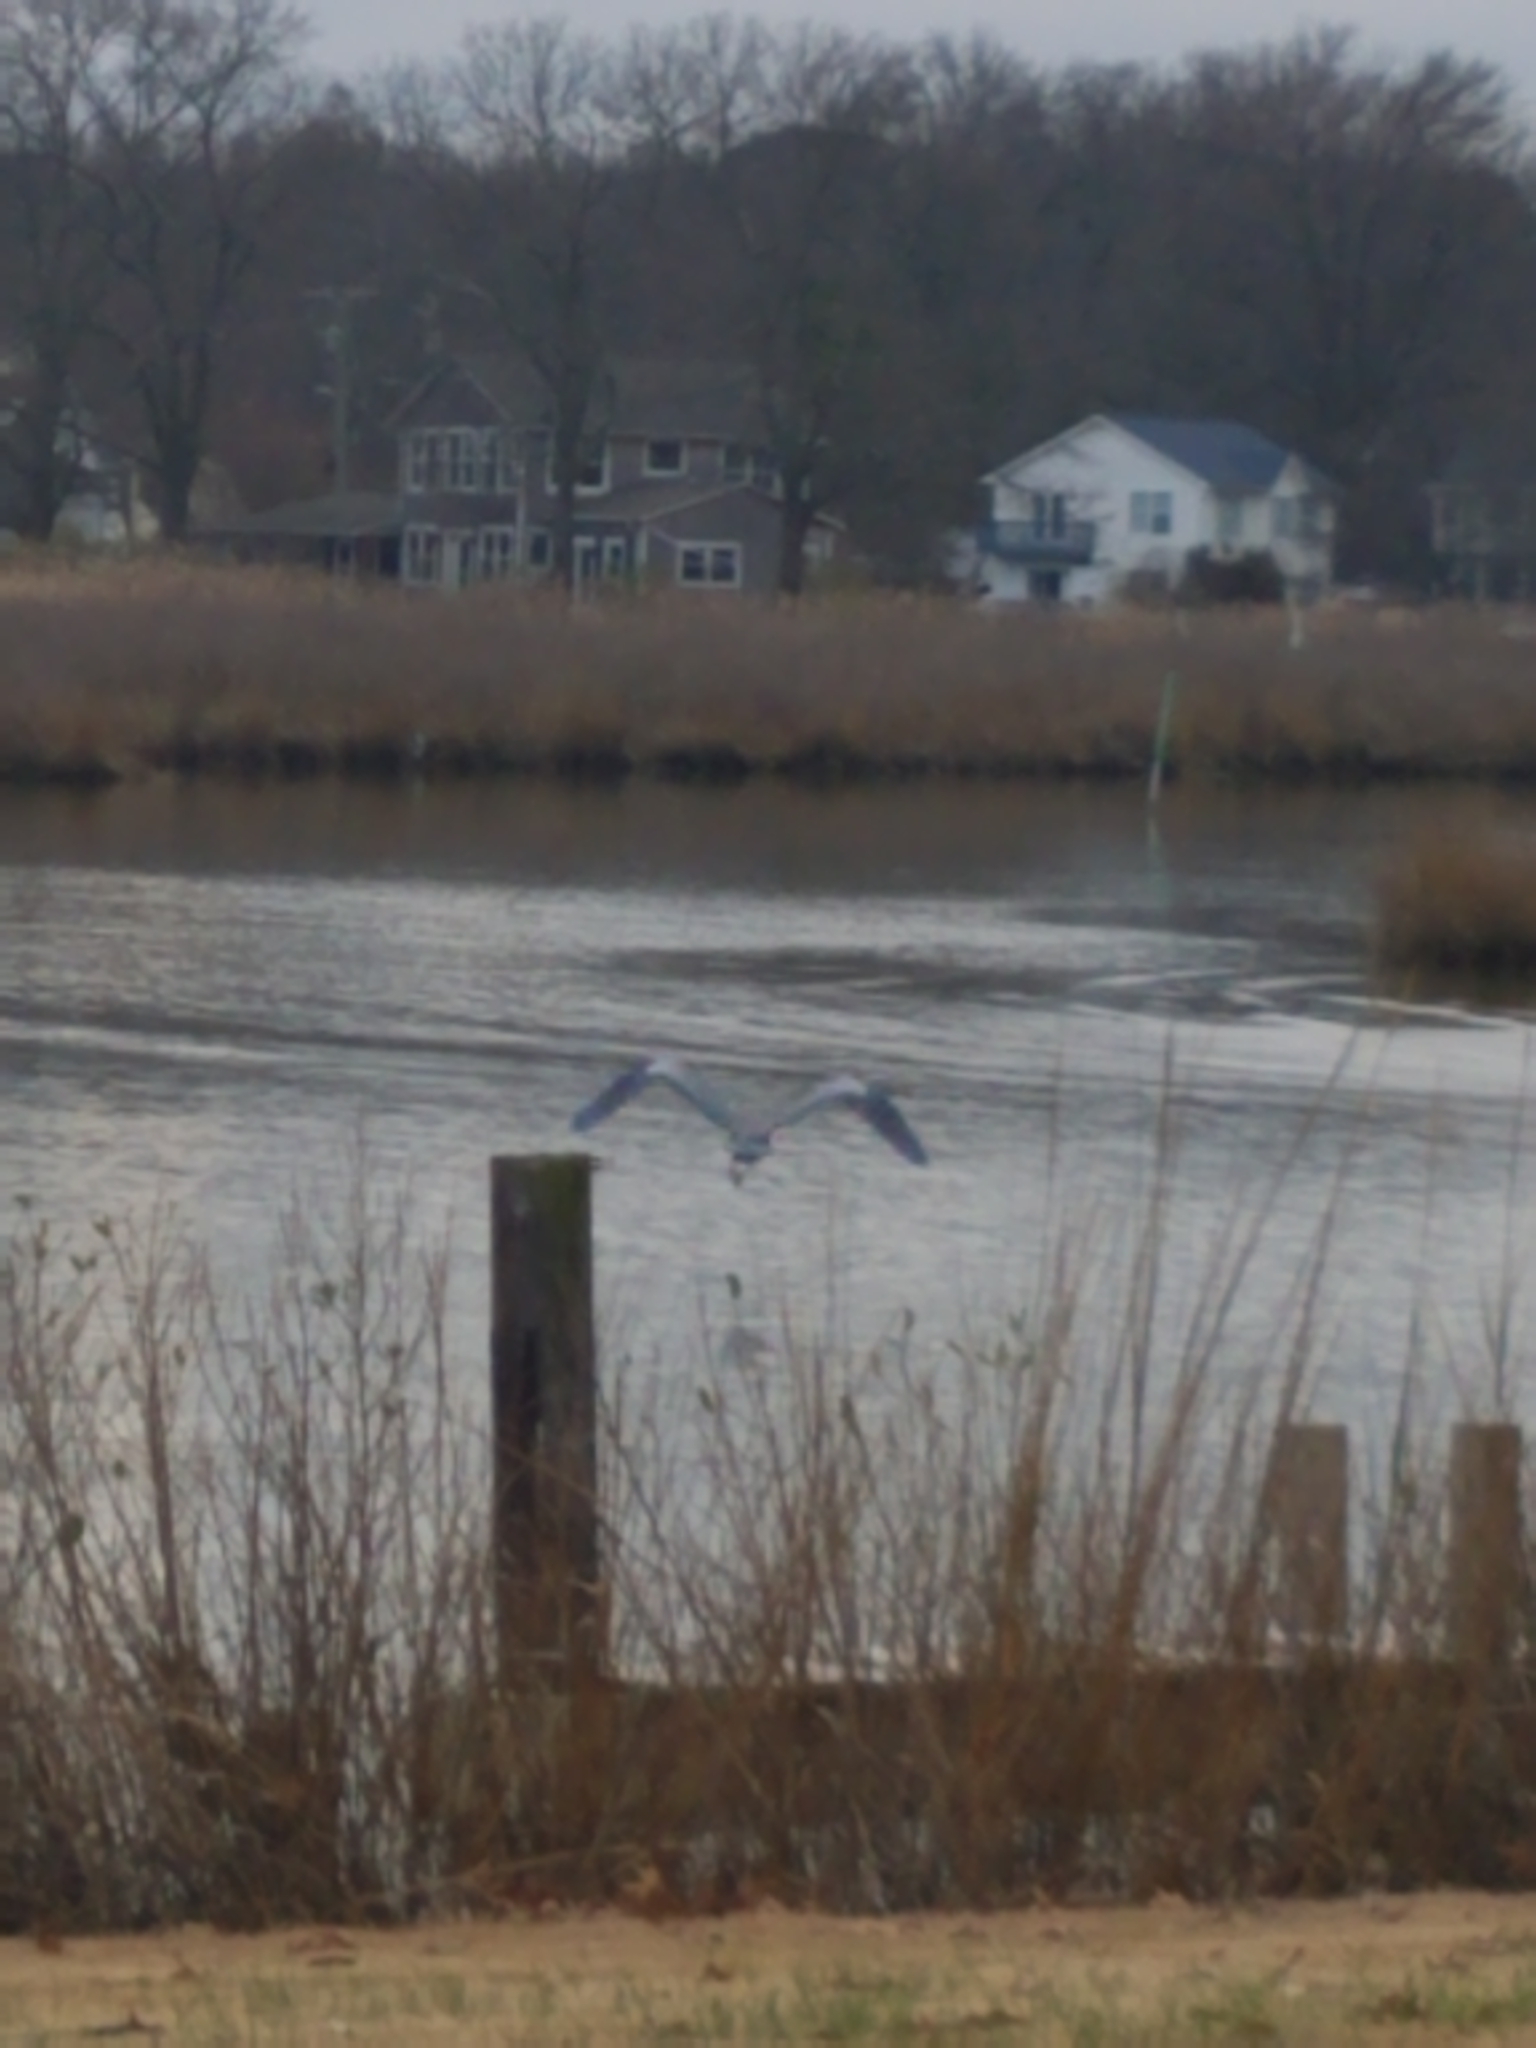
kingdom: Animalia
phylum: Chordata
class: Aves
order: Pelecaniformes
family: Ardeidae
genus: Ardea
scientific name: Ardea herodias
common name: Great blue heron
